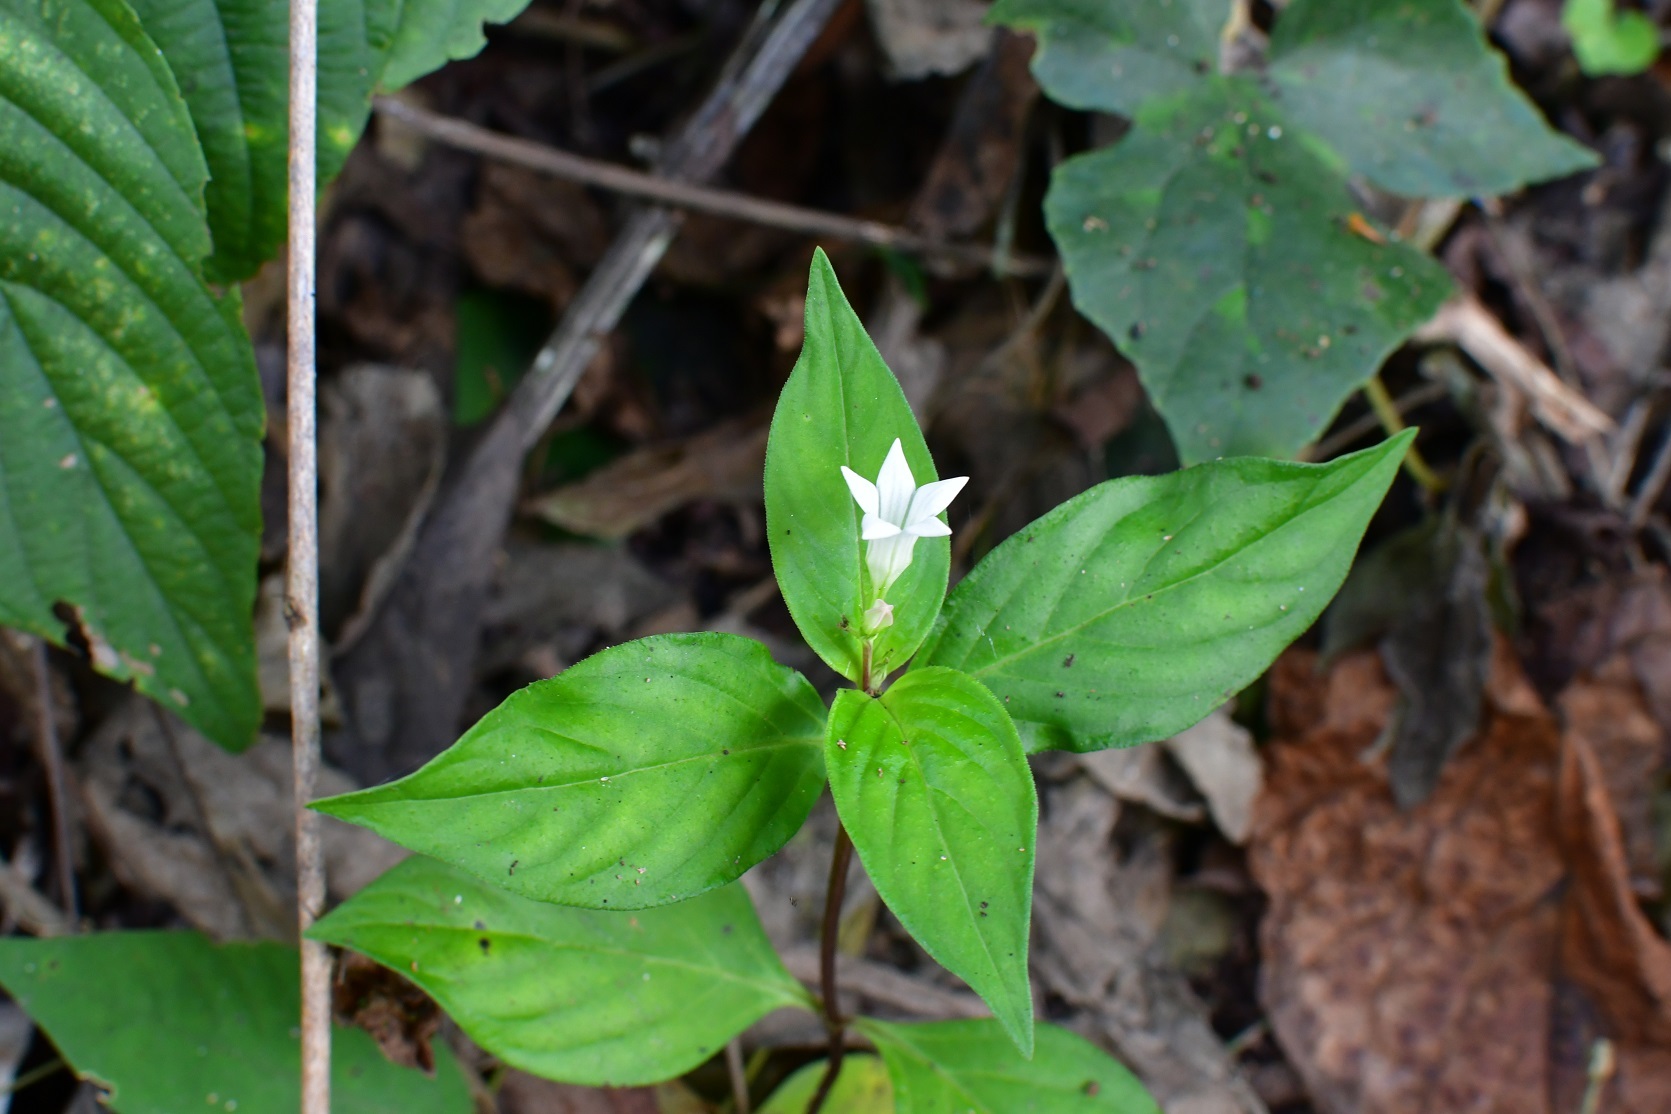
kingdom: Plantae
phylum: Tracheophyta
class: Magnoliopsida
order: Gentianales
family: Loganiaceae
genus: Spigelia
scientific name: Spigelia humboldtiana
